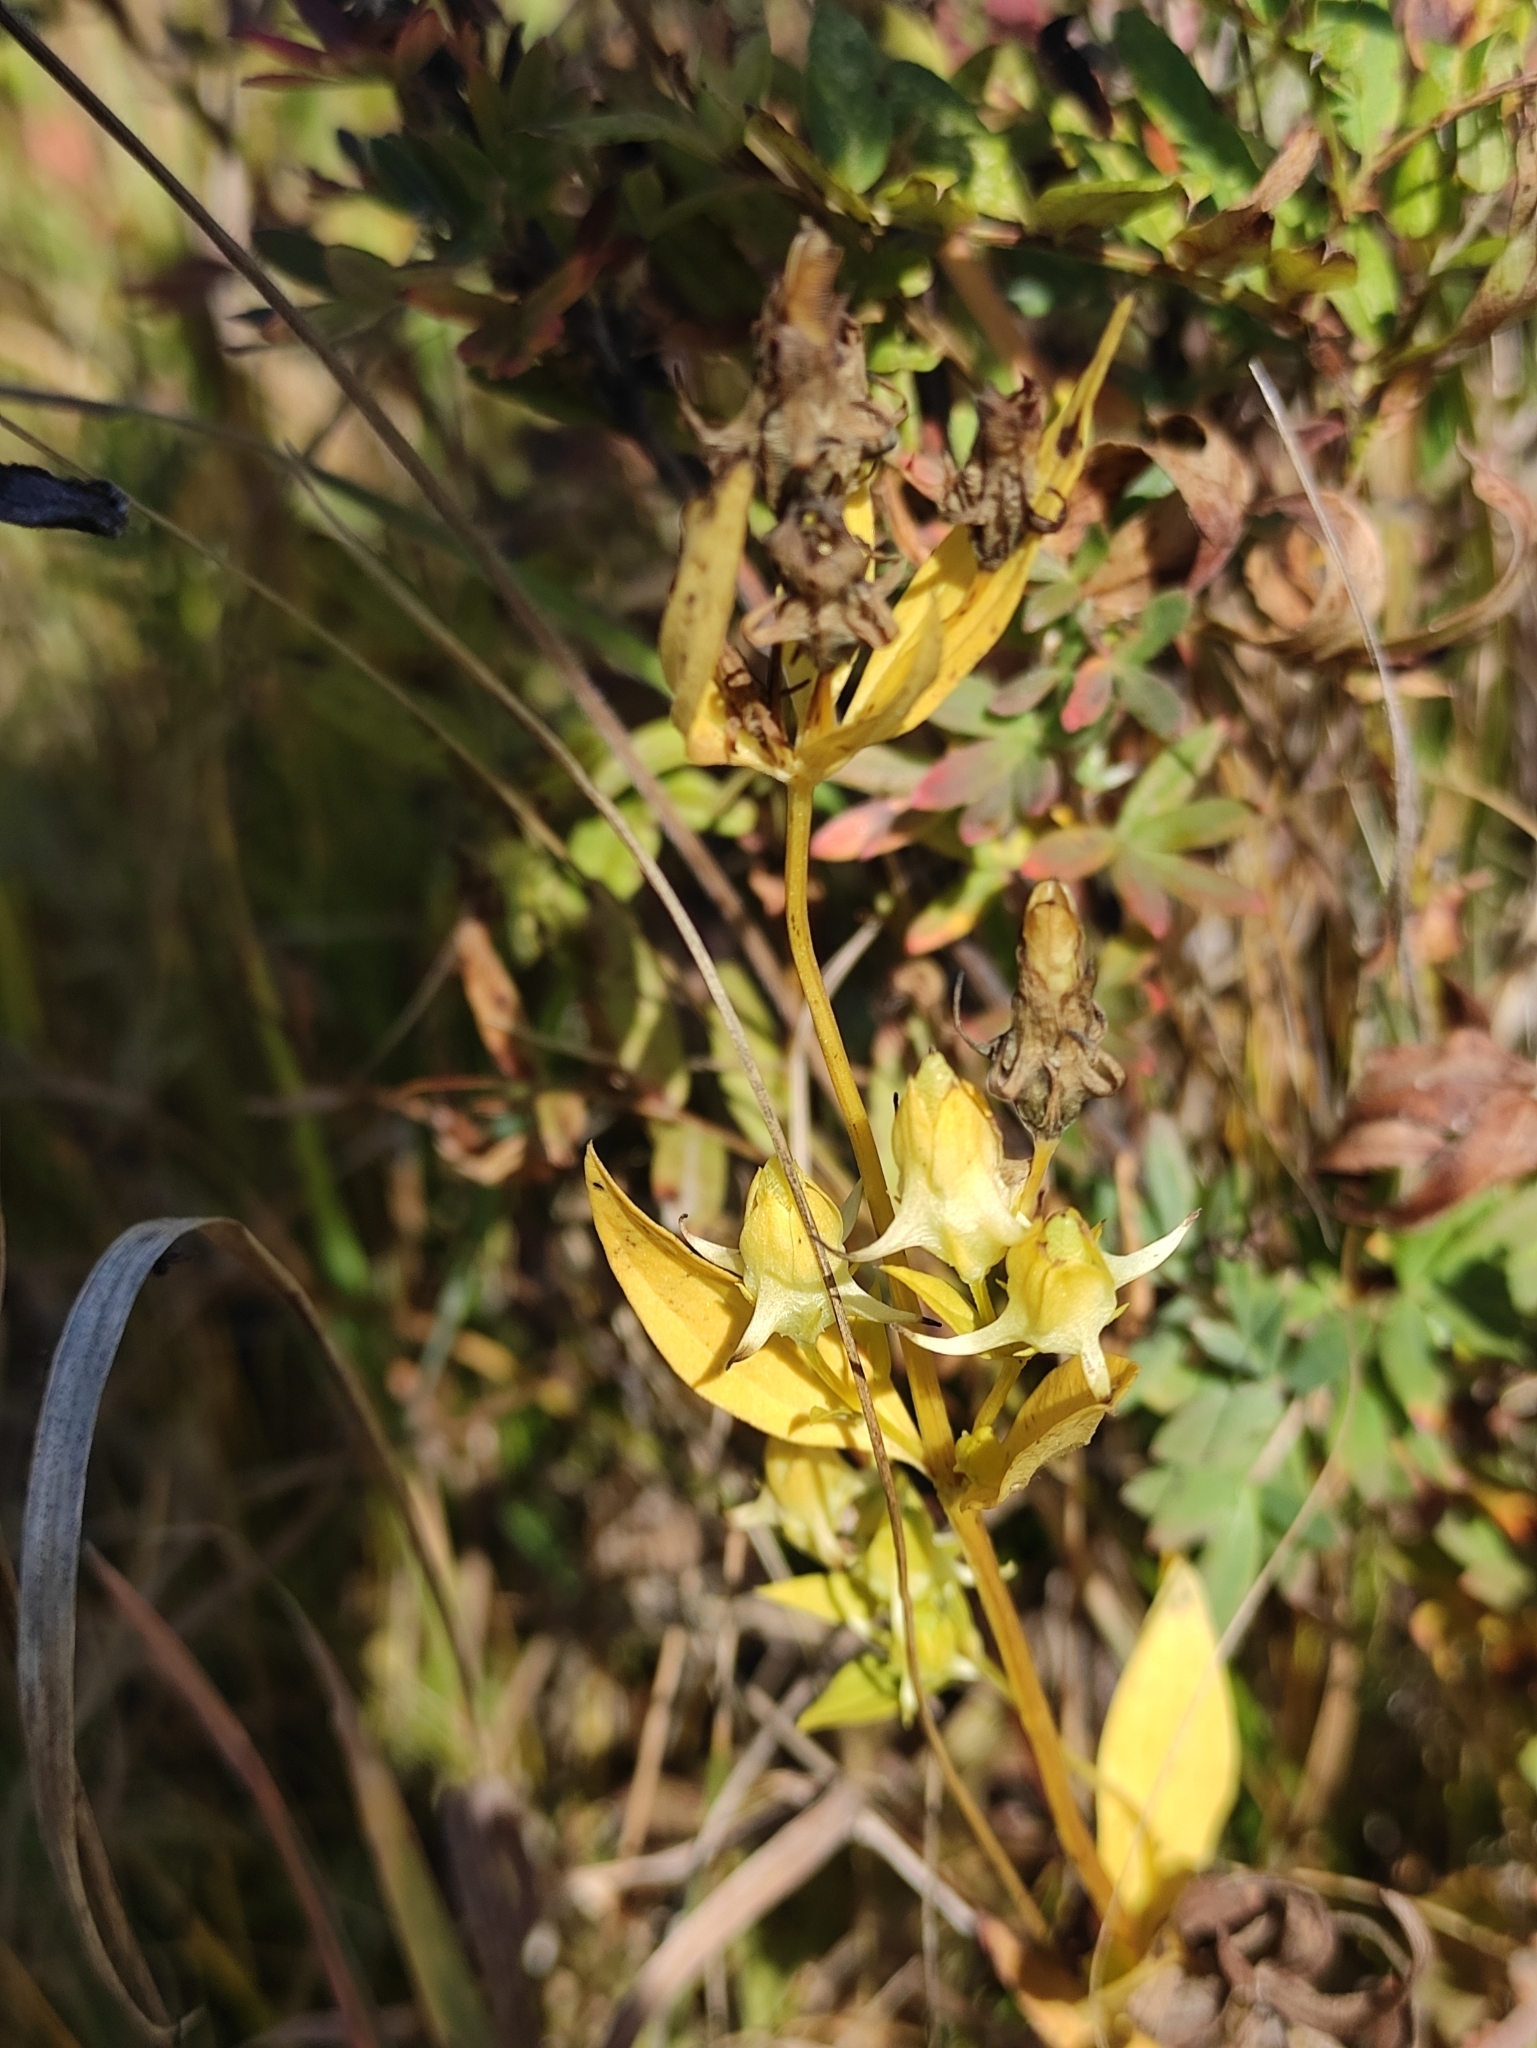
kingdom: Plantae
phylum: Tracheophyta
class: Magnoliopsida
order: Gentianales
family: Gentianaceae
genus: Halenia
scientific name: Halenia corniculata
